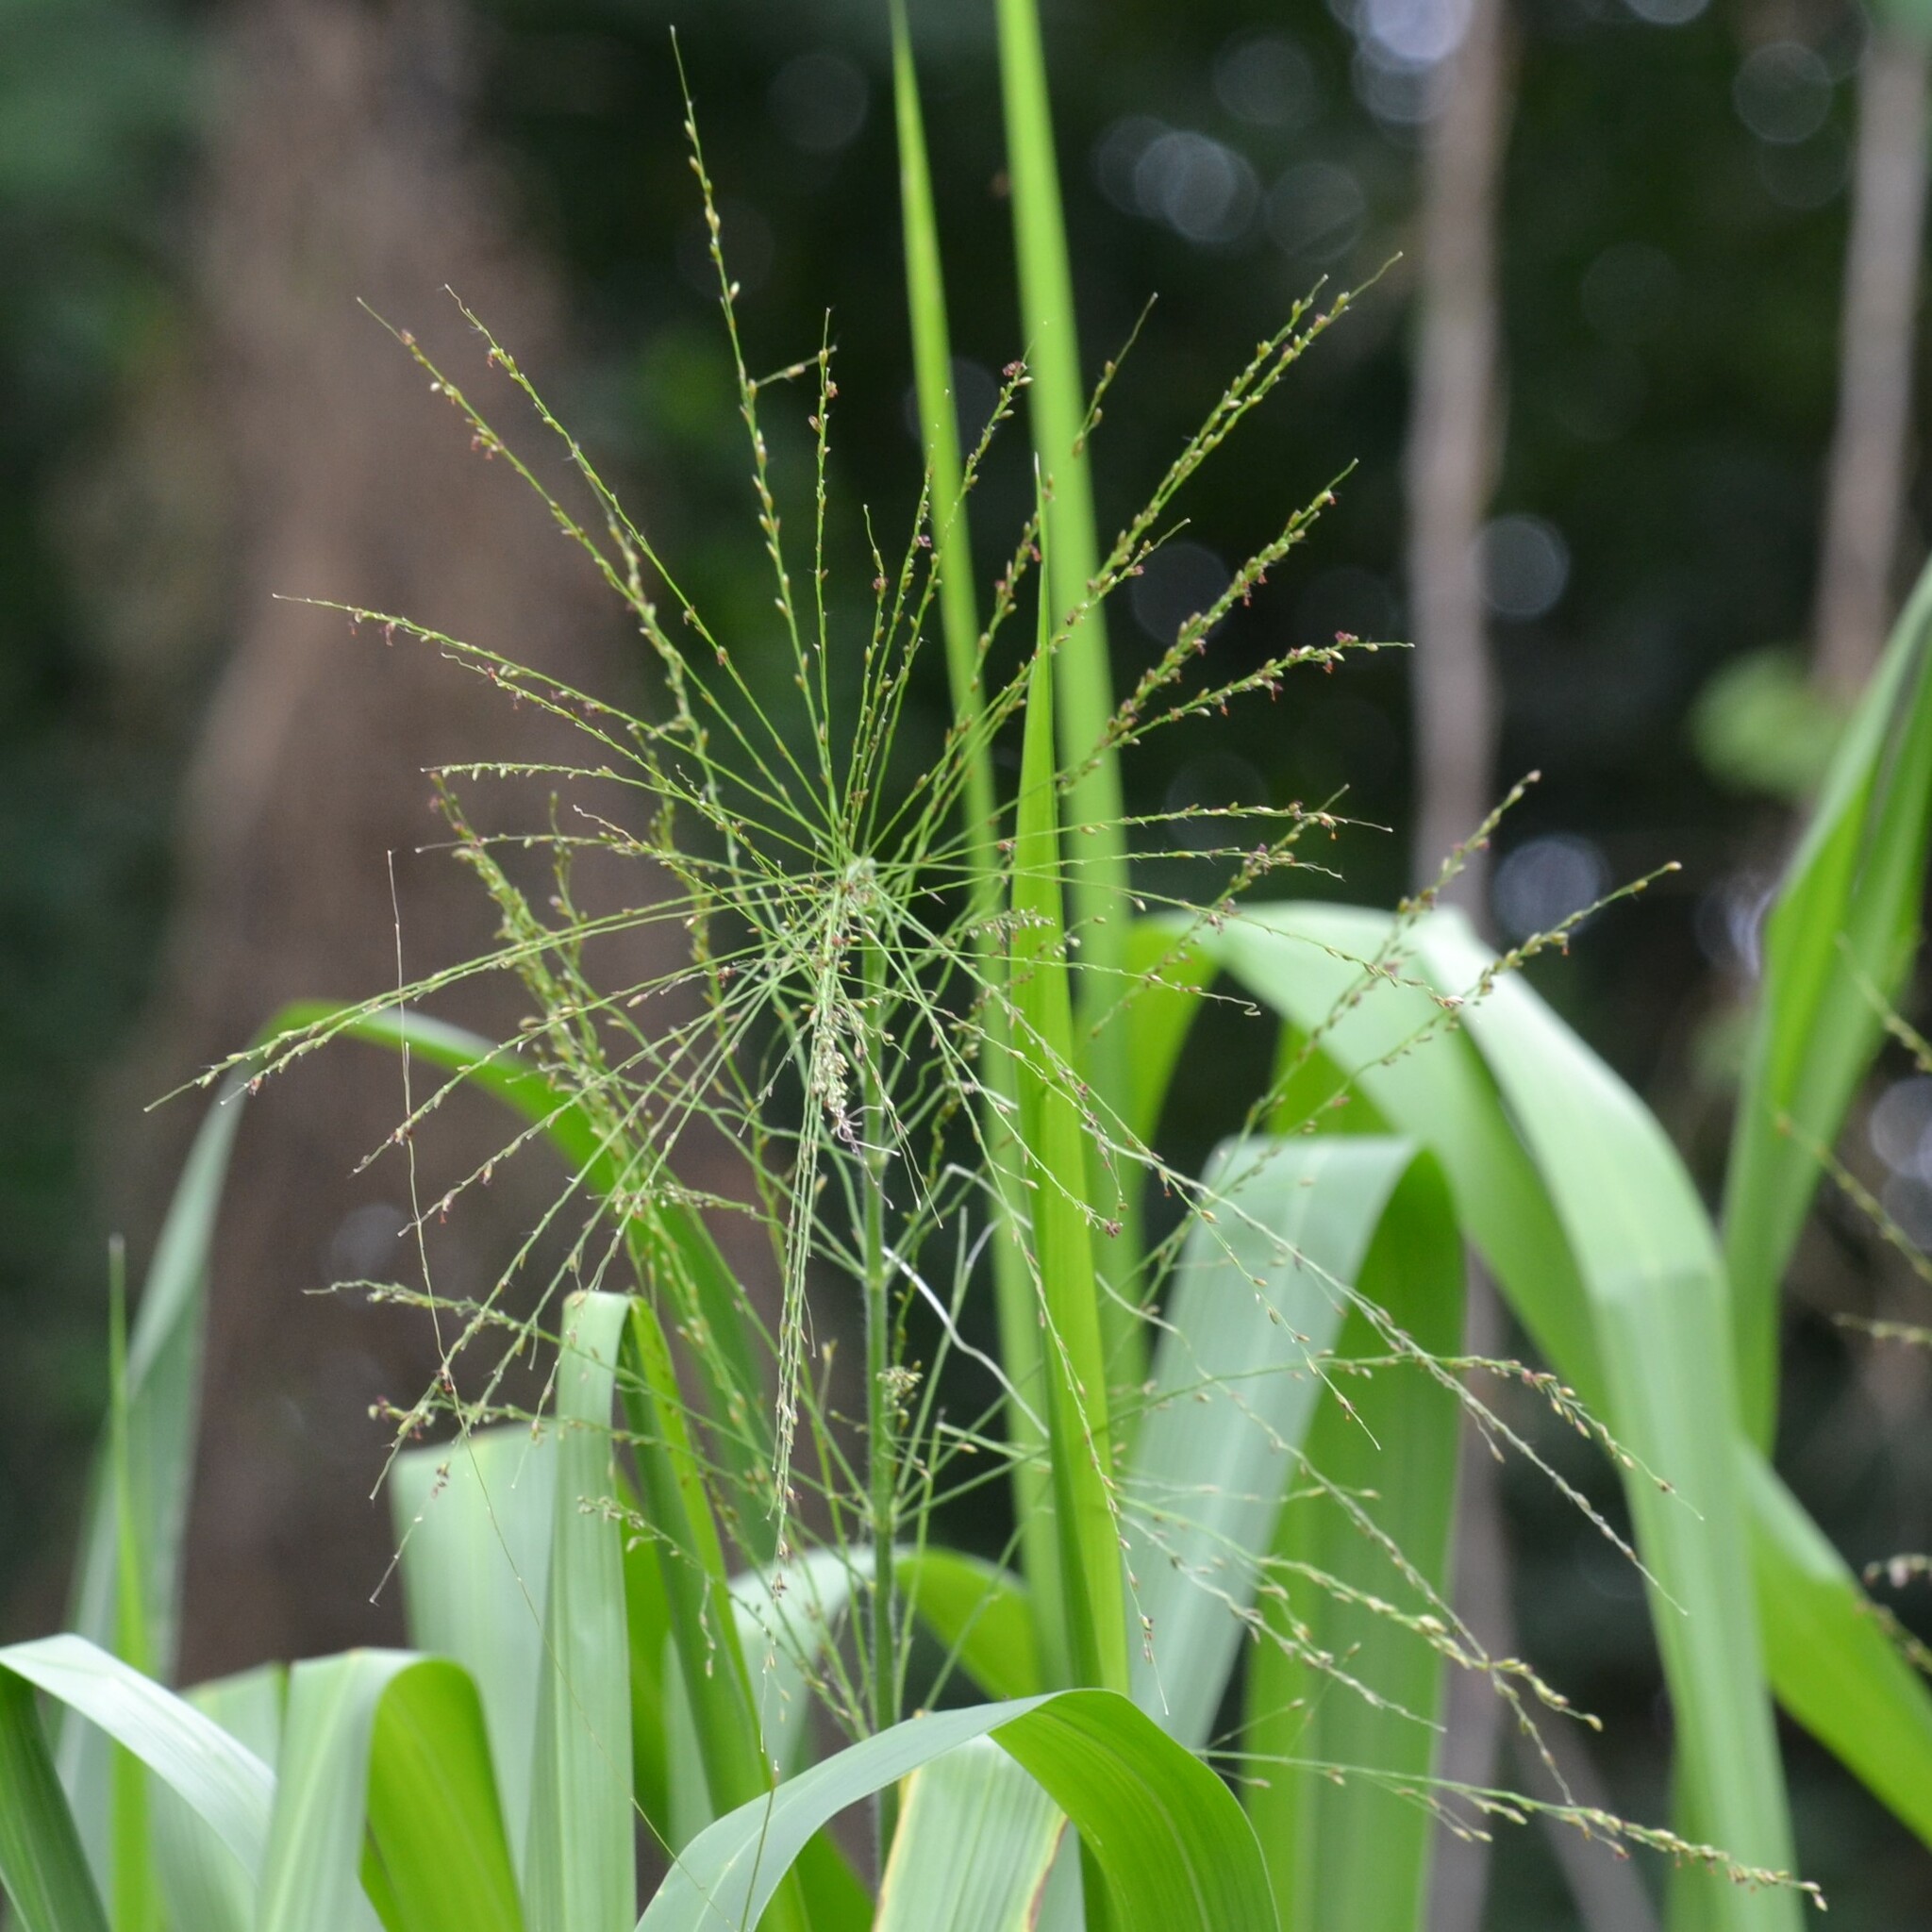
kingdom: Plantae
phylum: Tracheophyta
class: Liliopsida
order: Poales
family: Poaceae
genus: Megathyrsus
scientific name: Megathyrsus maximus
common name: Guineagrass
